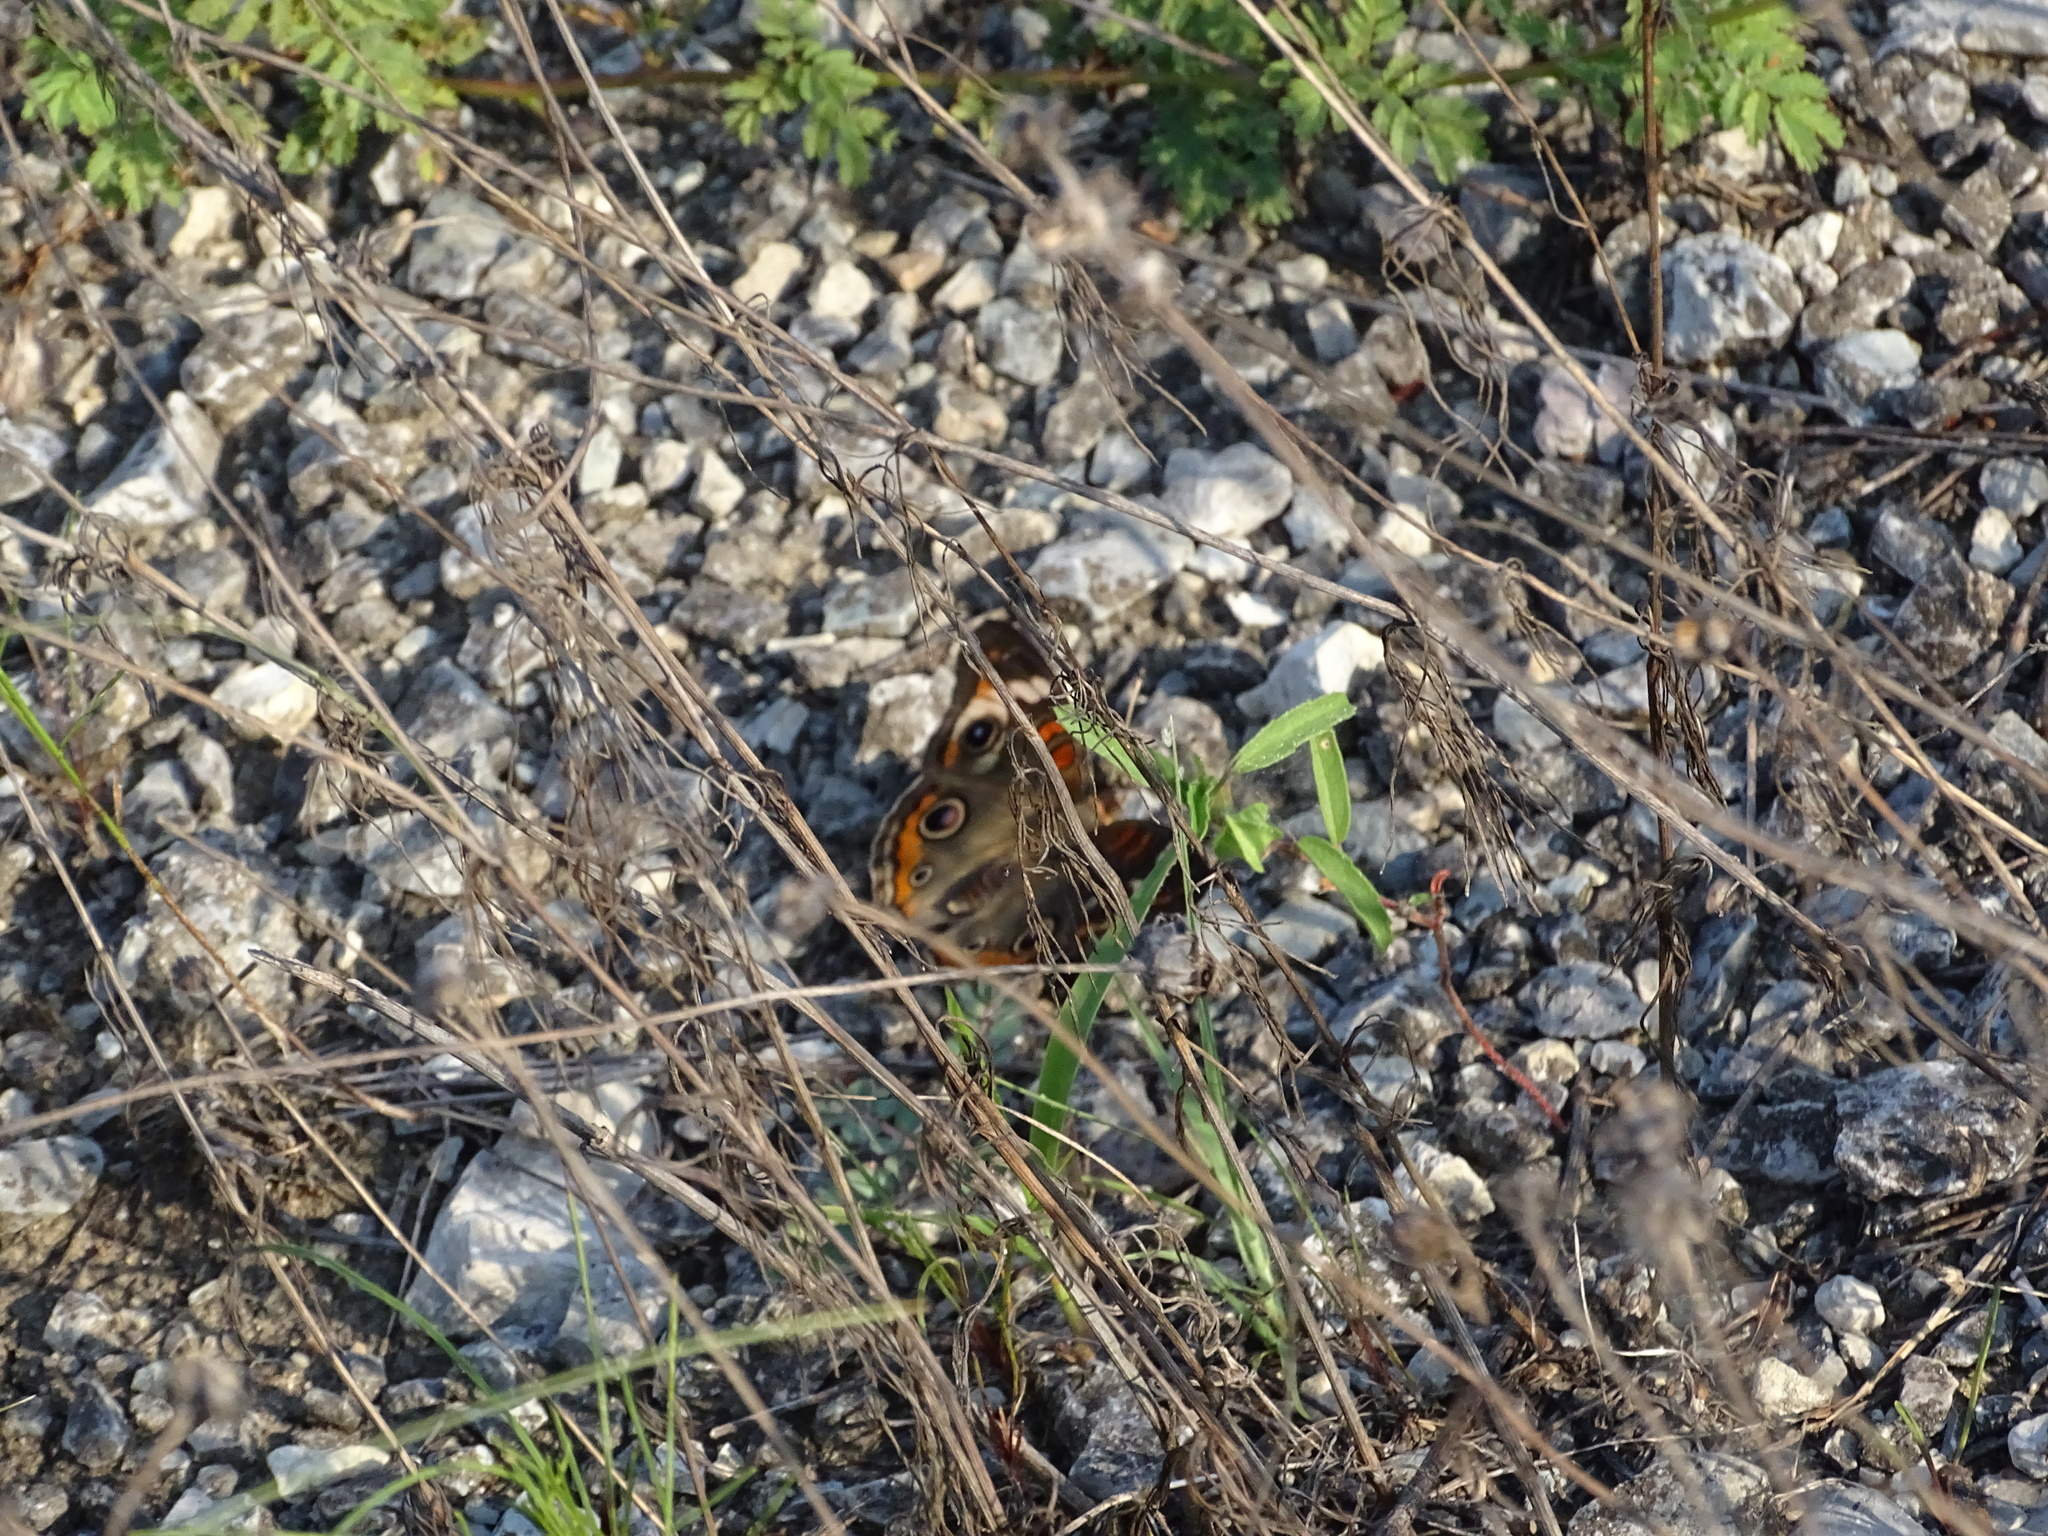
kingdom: Animalia
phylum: Arthropoda
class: Insecta
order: Lepidoptera
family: Nymphalidae
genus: Junonia
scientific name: Junonia coenia
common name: Common buckeye
